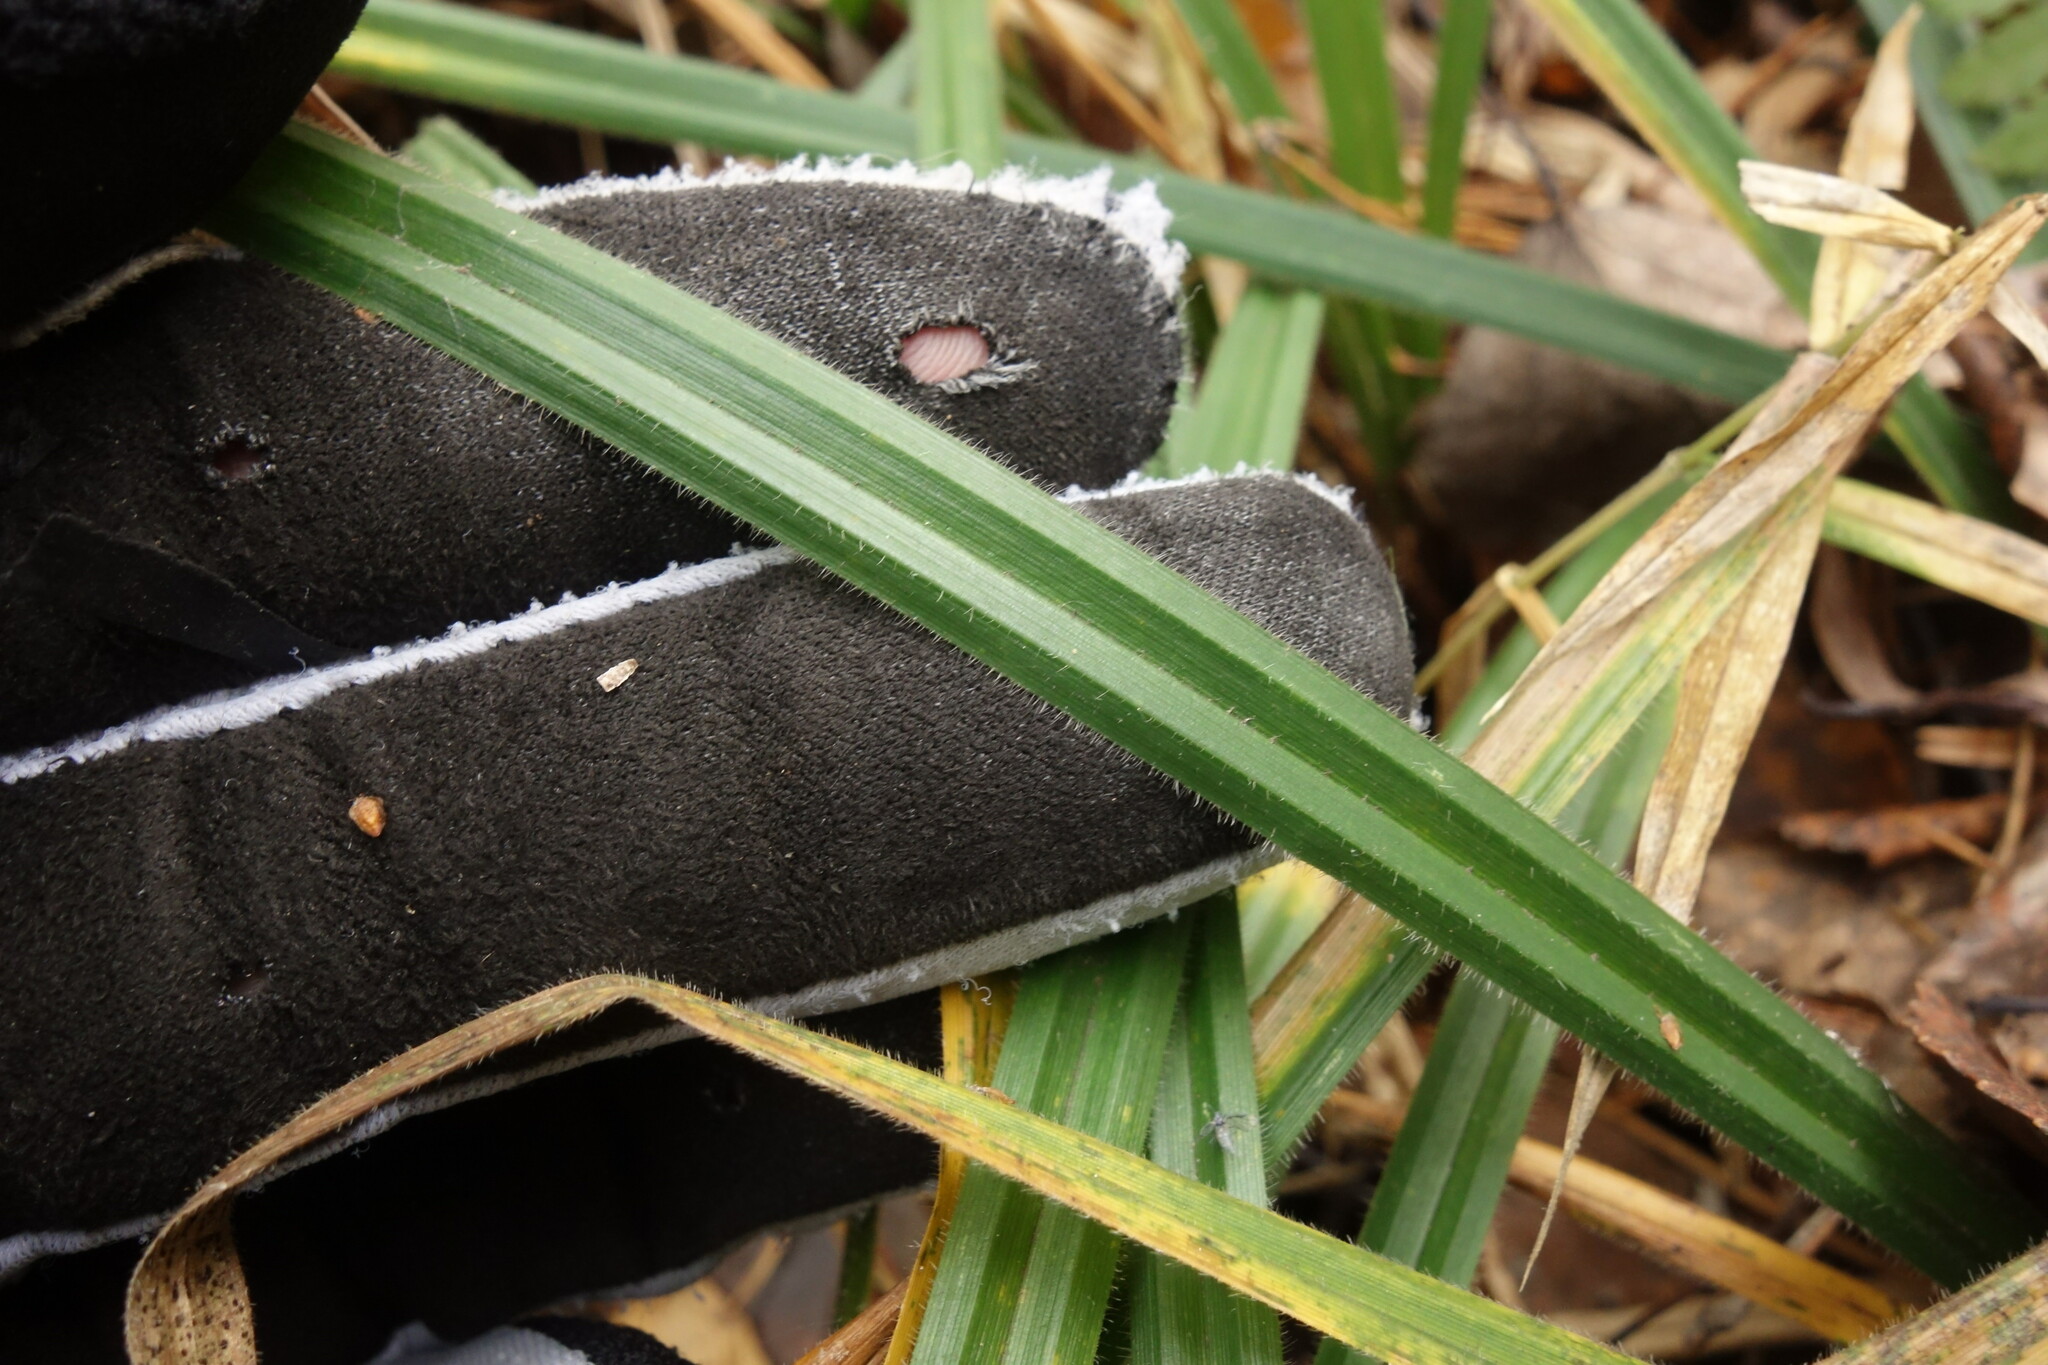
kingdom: Plantae
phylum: Tracheophyta
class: Liliopsida
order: Poales
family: Cyperaceae
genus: Carex
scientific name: Carex pilosa
